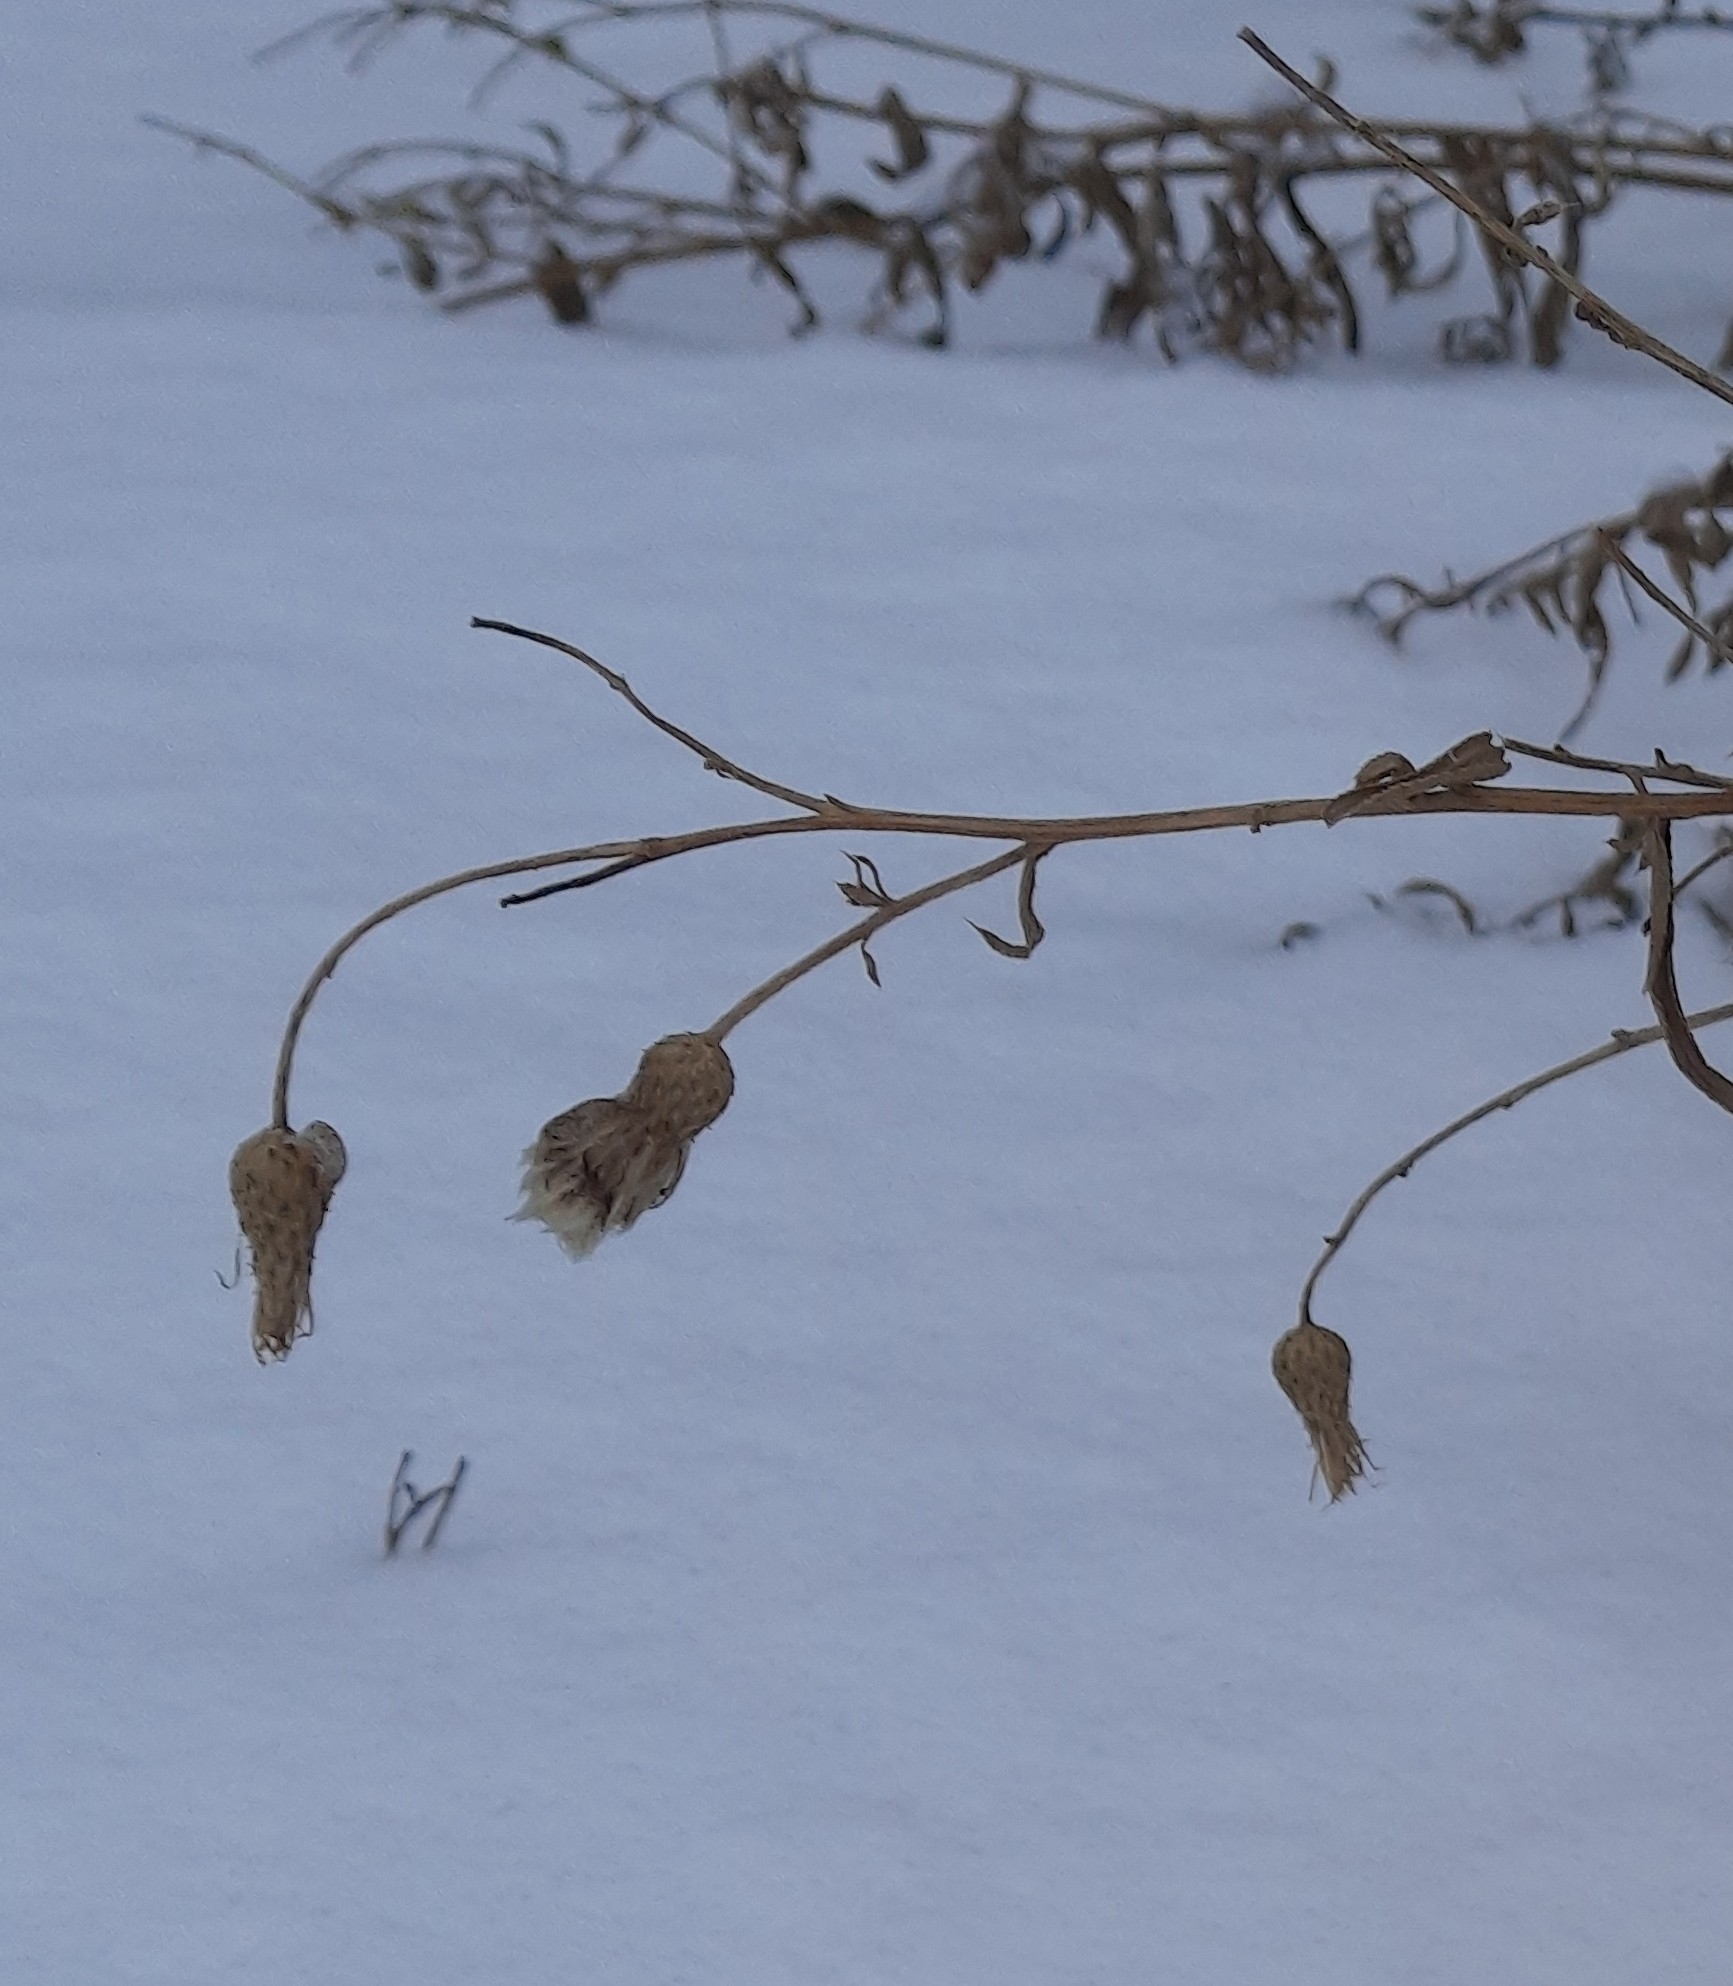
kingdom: Plantae
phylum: Tracheophyta
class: Magnoliopsida
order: Asterales
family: Asteraceae
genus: Cirsium
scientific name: Cirsium arvense
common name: Creeping thistle
